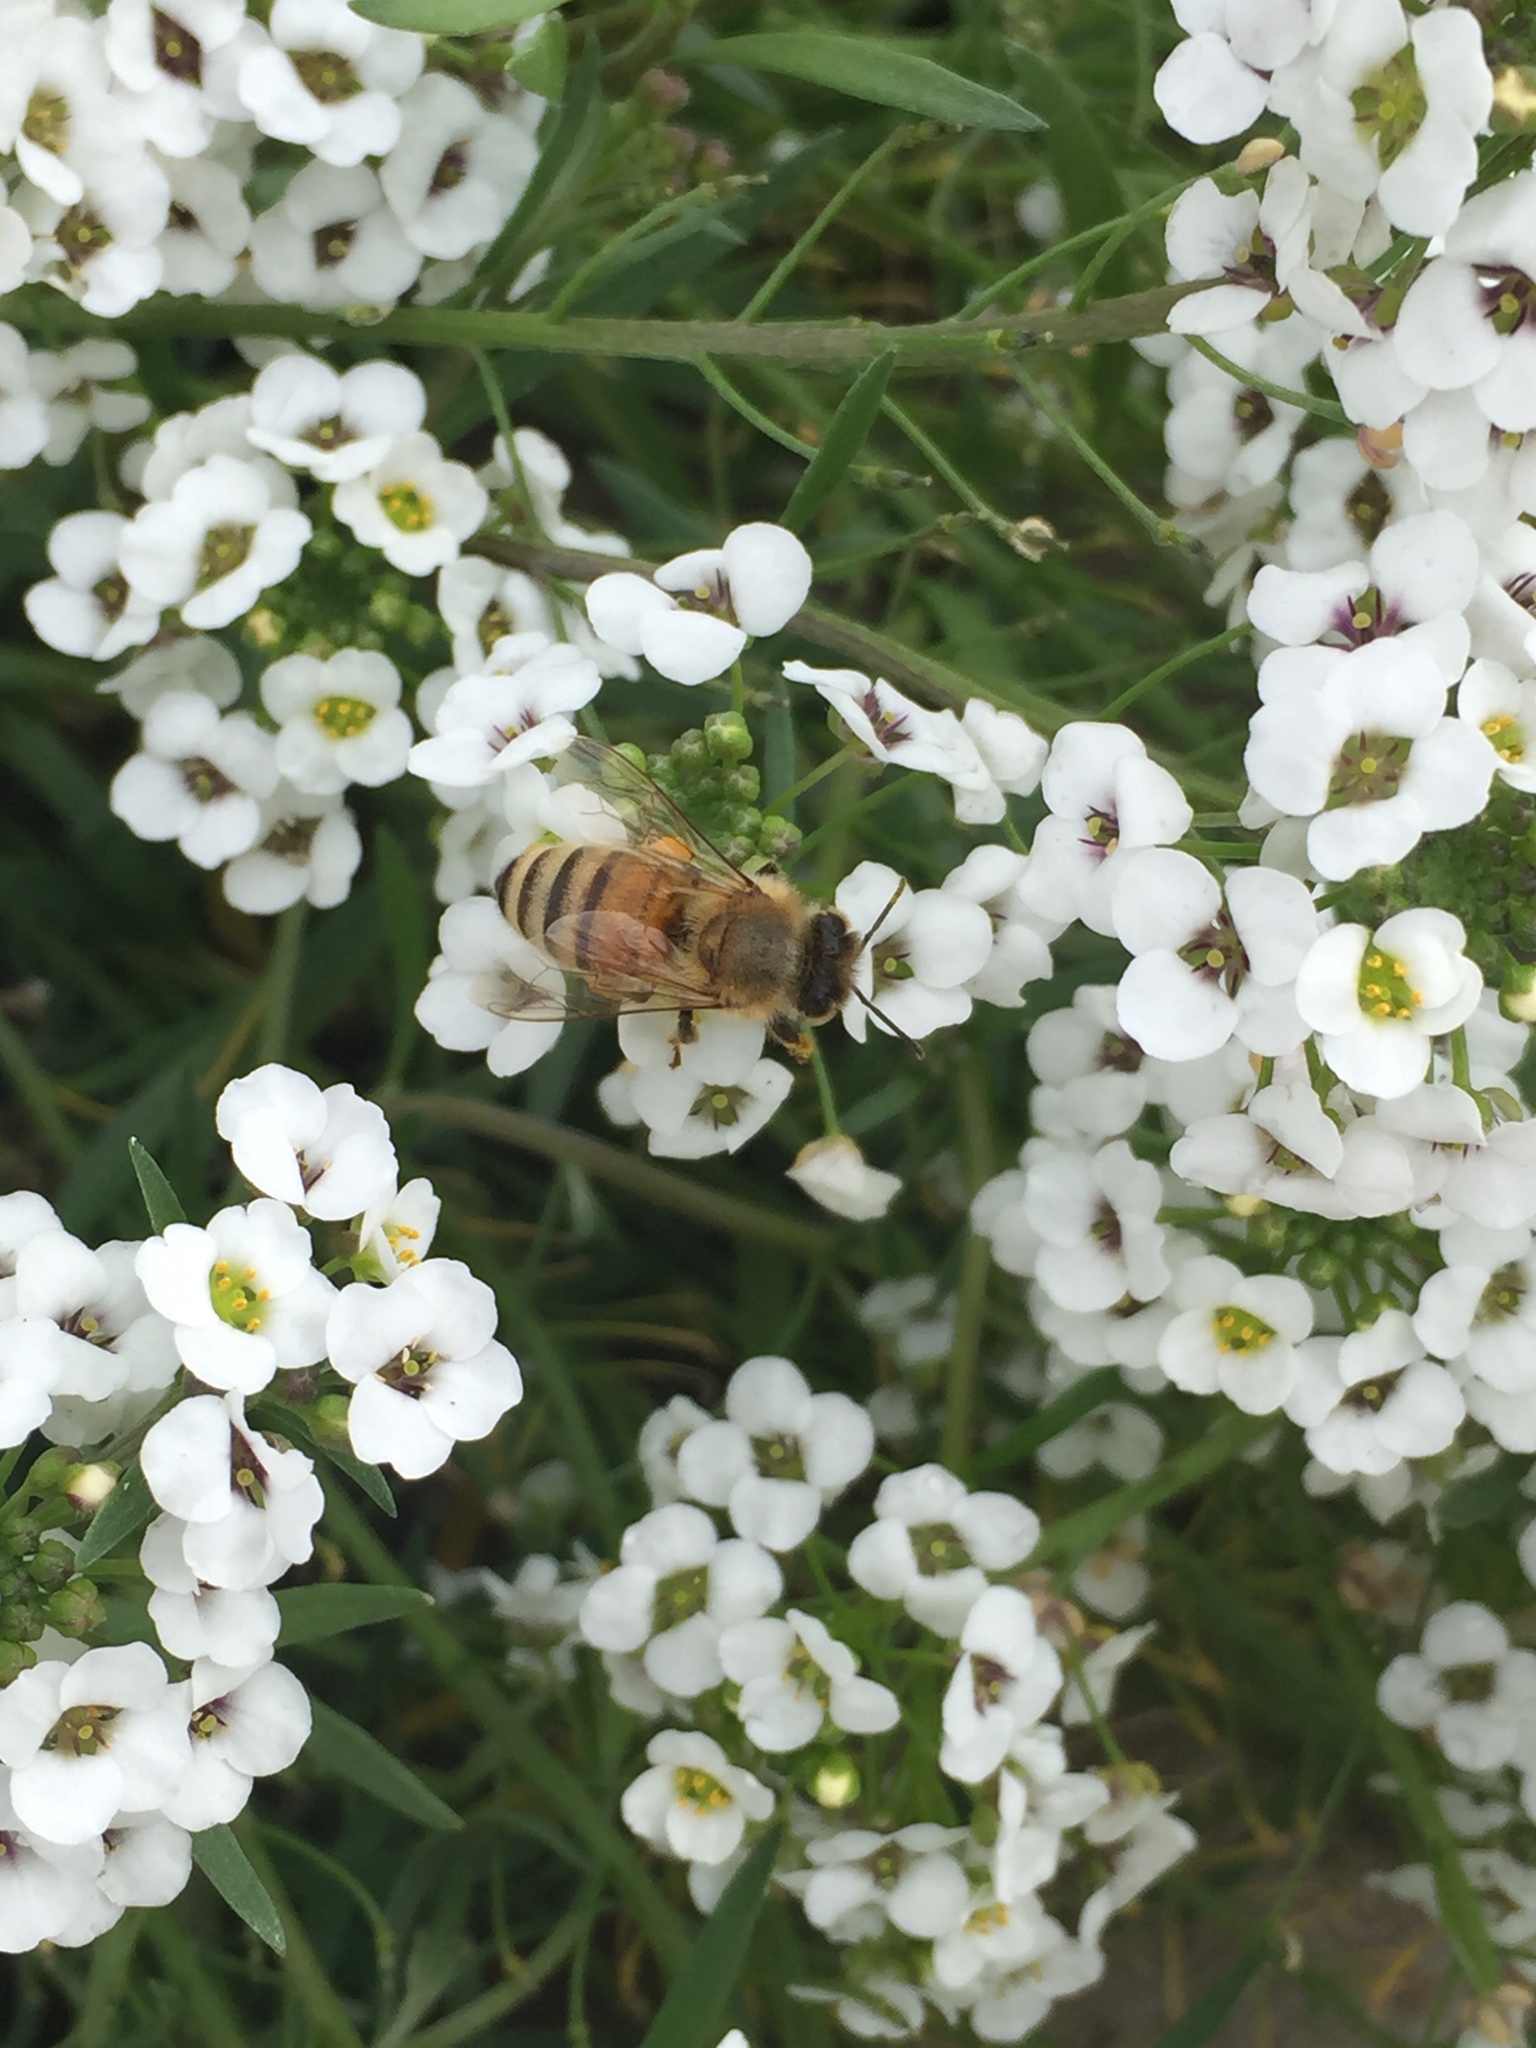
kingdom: Animalia
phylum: Arthropoda
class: Insecta
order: Hymenoptera
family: Apidae
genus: Apis
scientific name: Apis mellifera
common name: Honey bee
